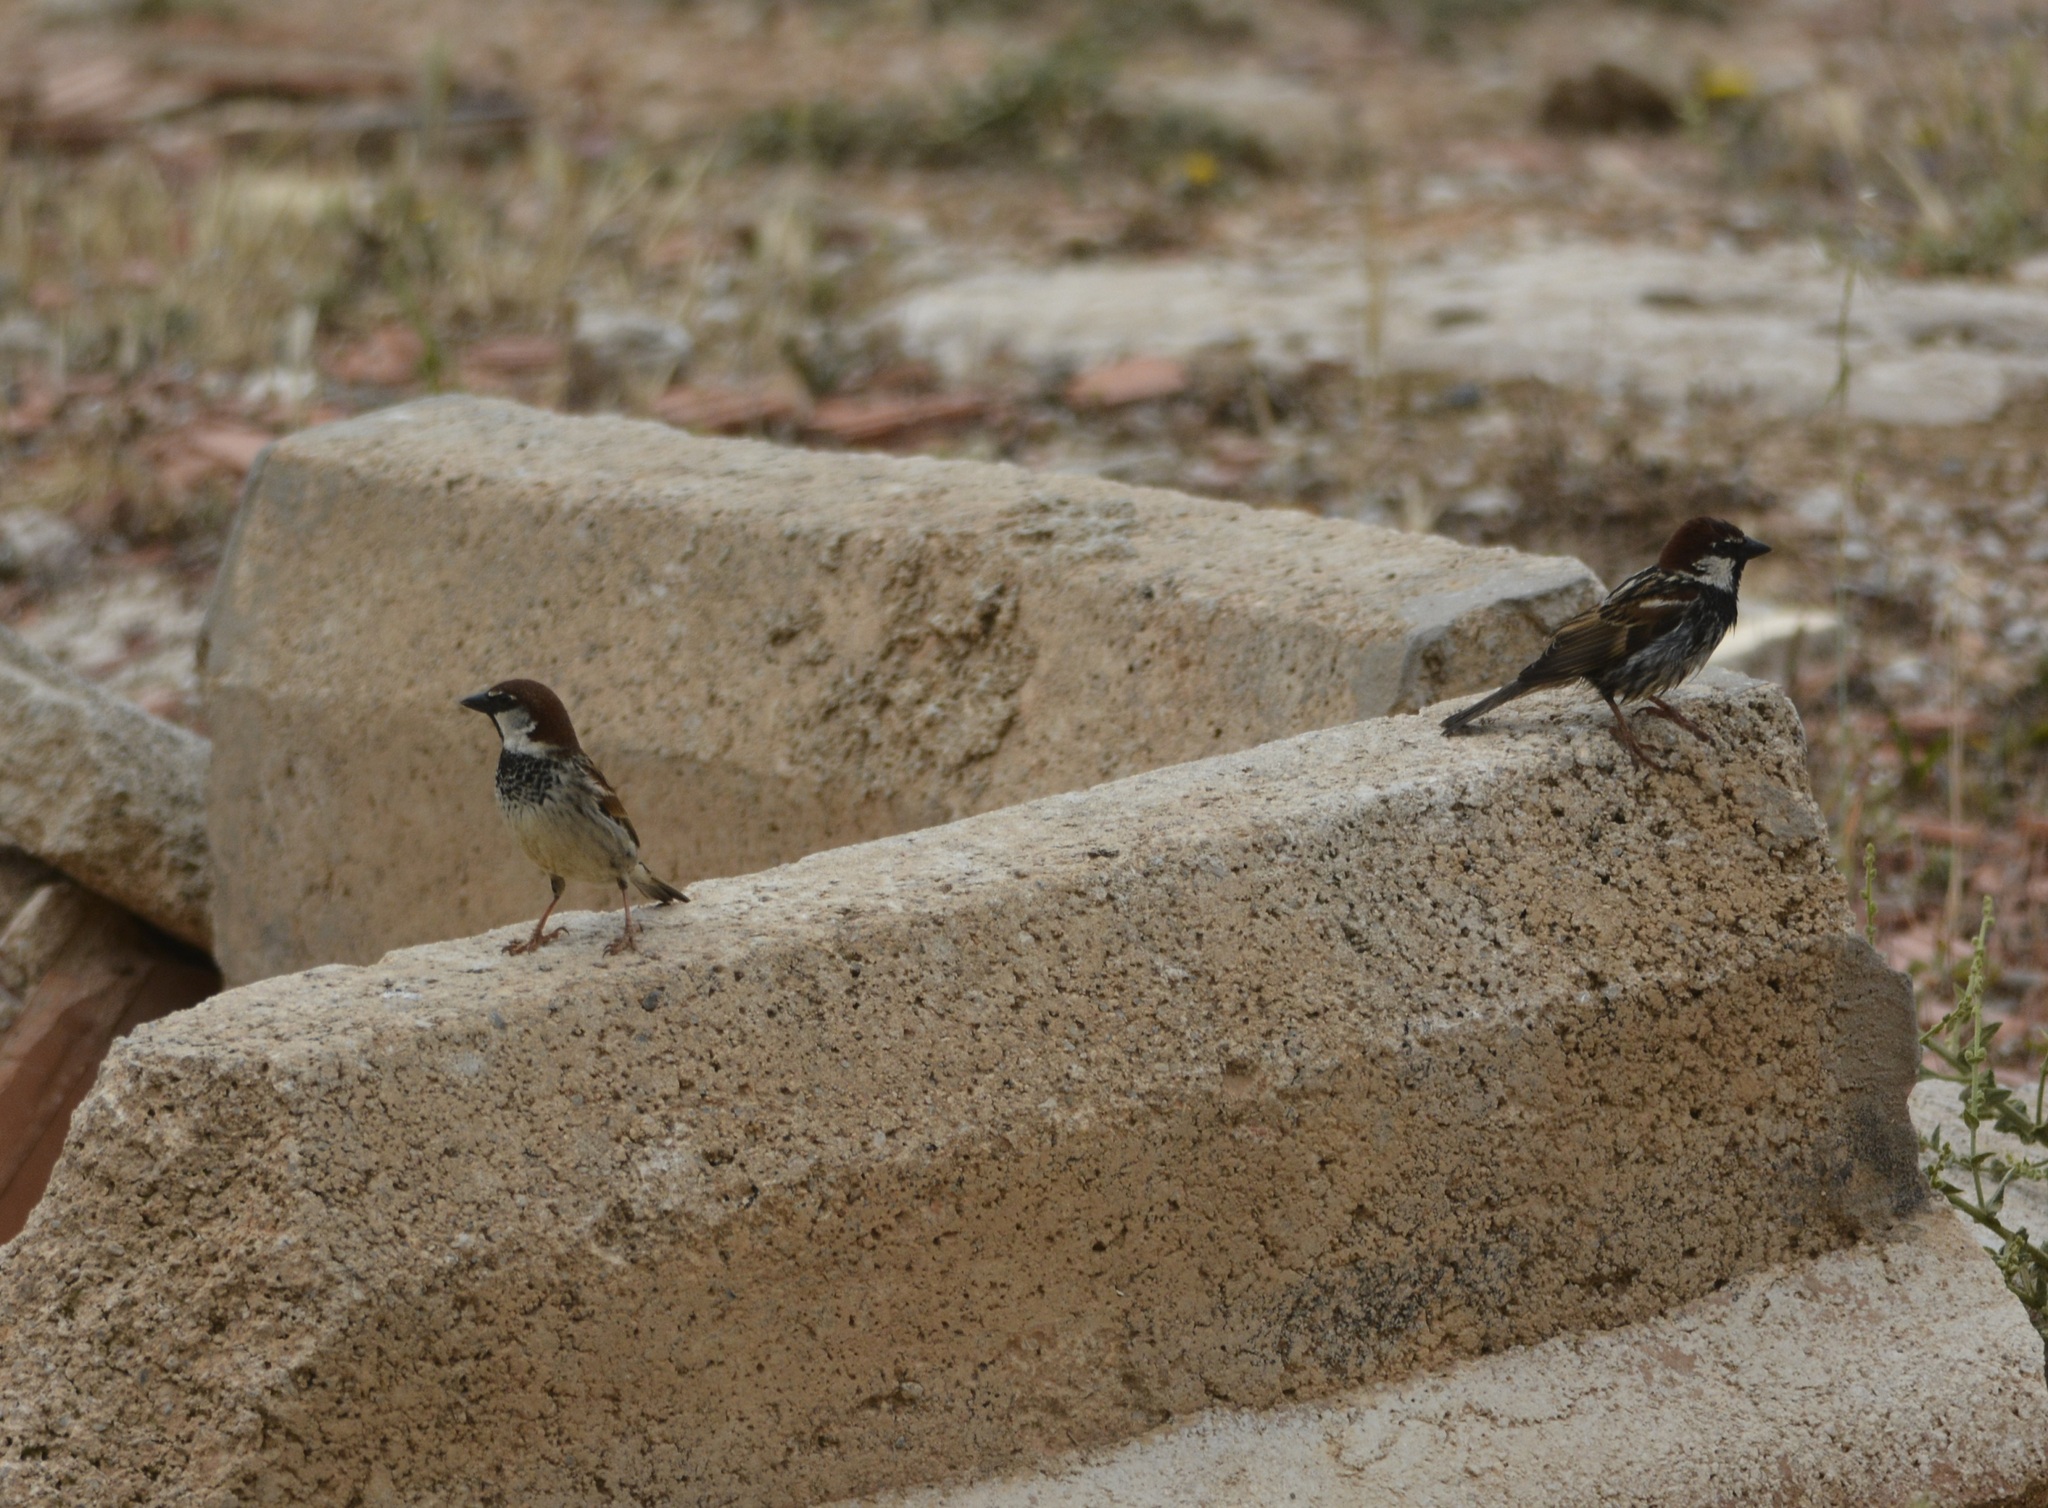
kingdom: Animalia
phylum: Chordata
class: Aves
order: Passeriformes
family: Passeridae
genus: Passer
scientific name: Passer hispaniolensis
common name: Spanish sparrow
